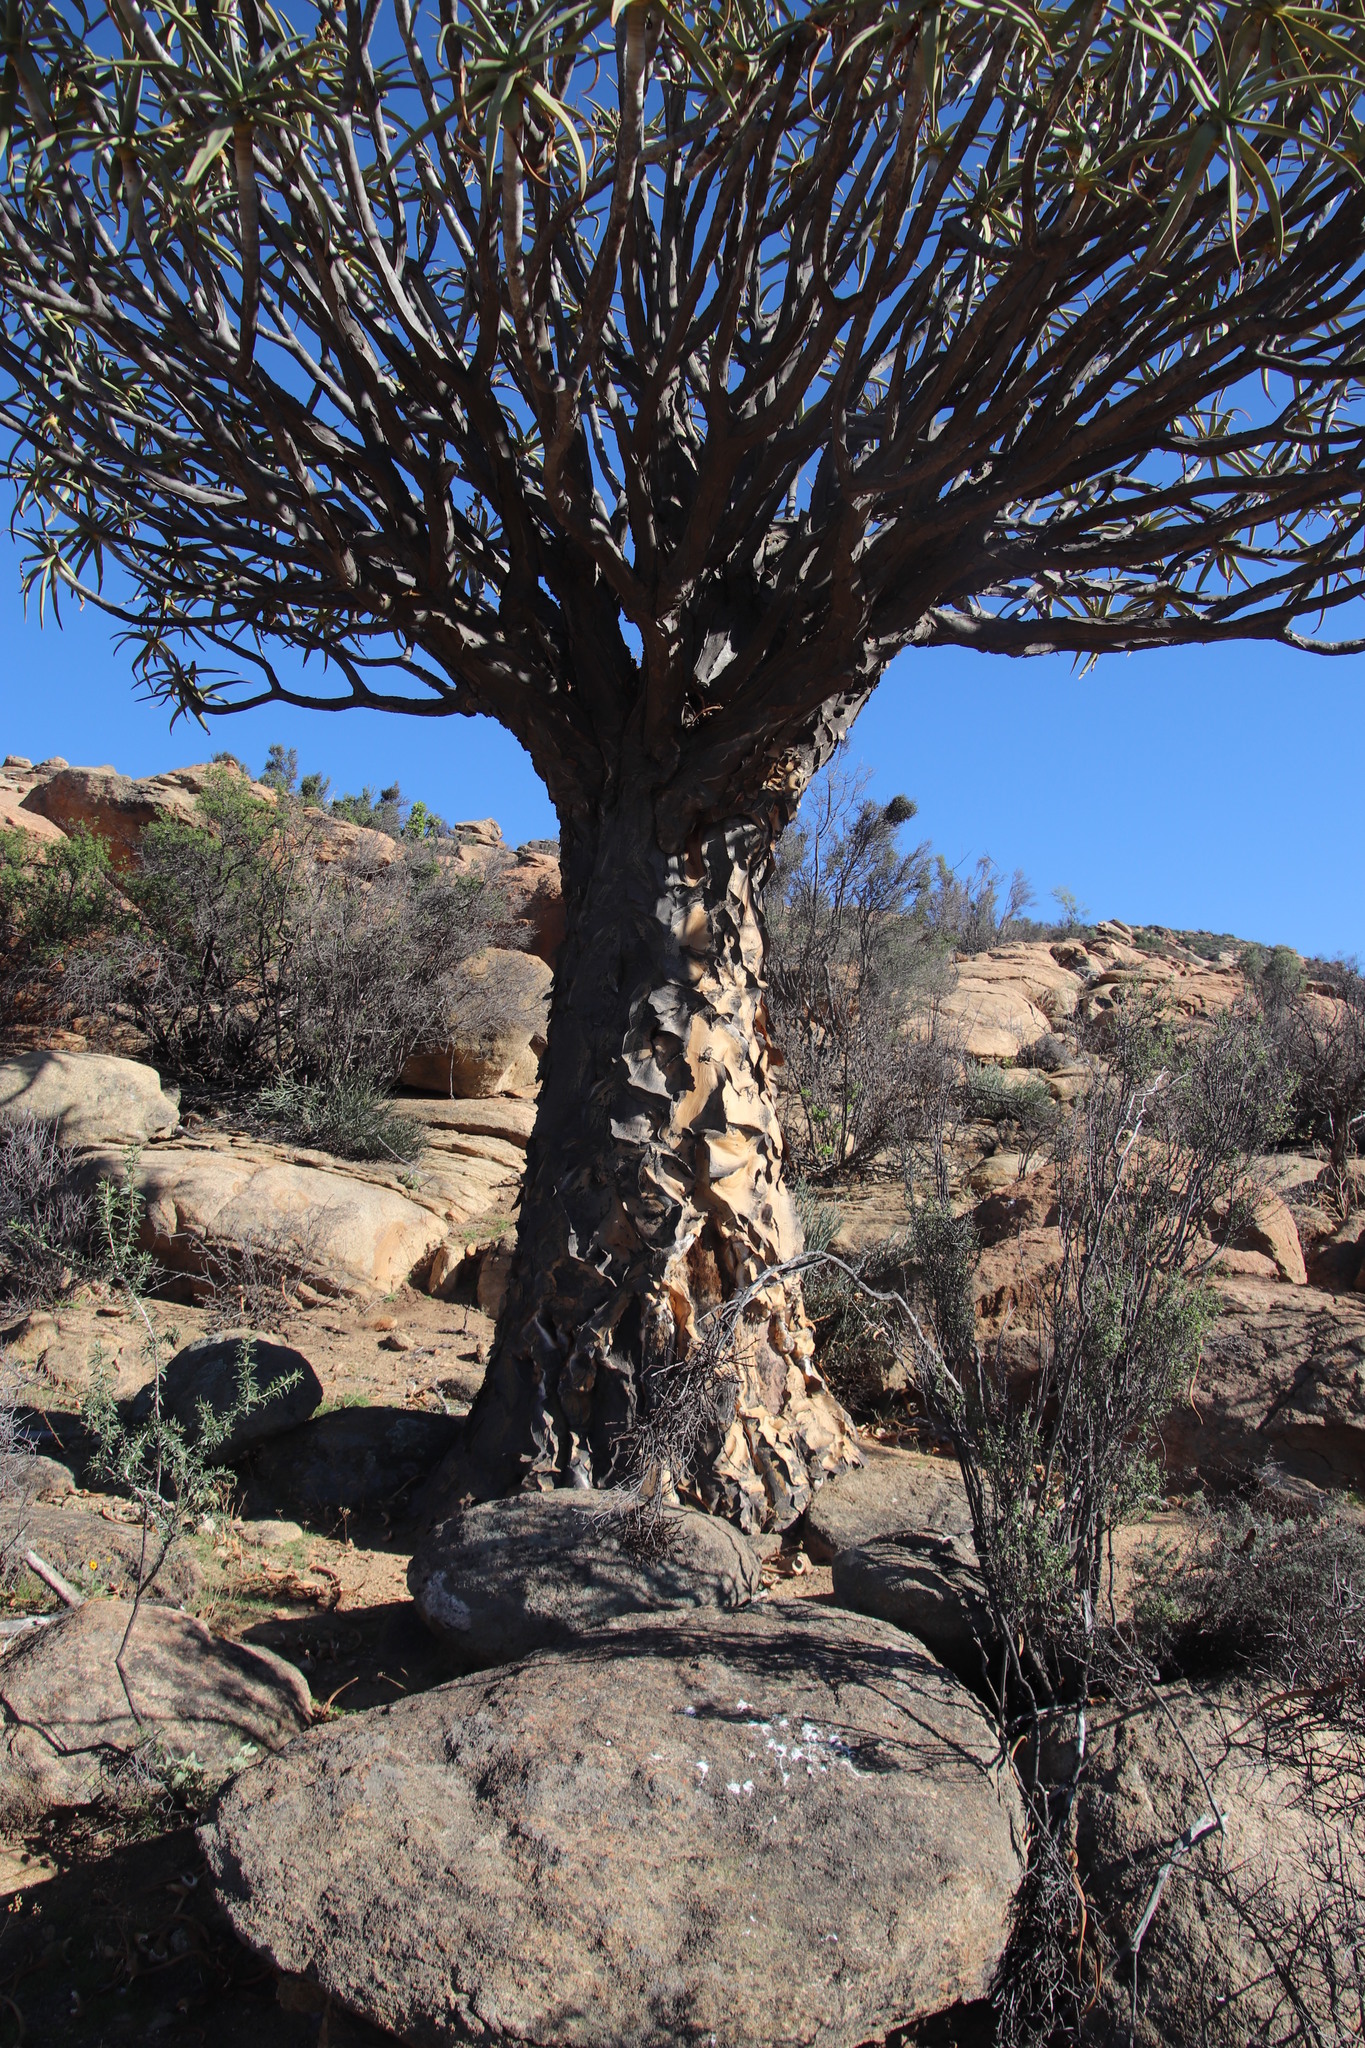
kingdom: Plantae
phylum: Tracheophyta
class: Liliopsida
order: Asparagales
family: Asphodelaceae
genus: Aloidendron
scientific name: Aloidendron dichotomum
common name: Quiver tree
